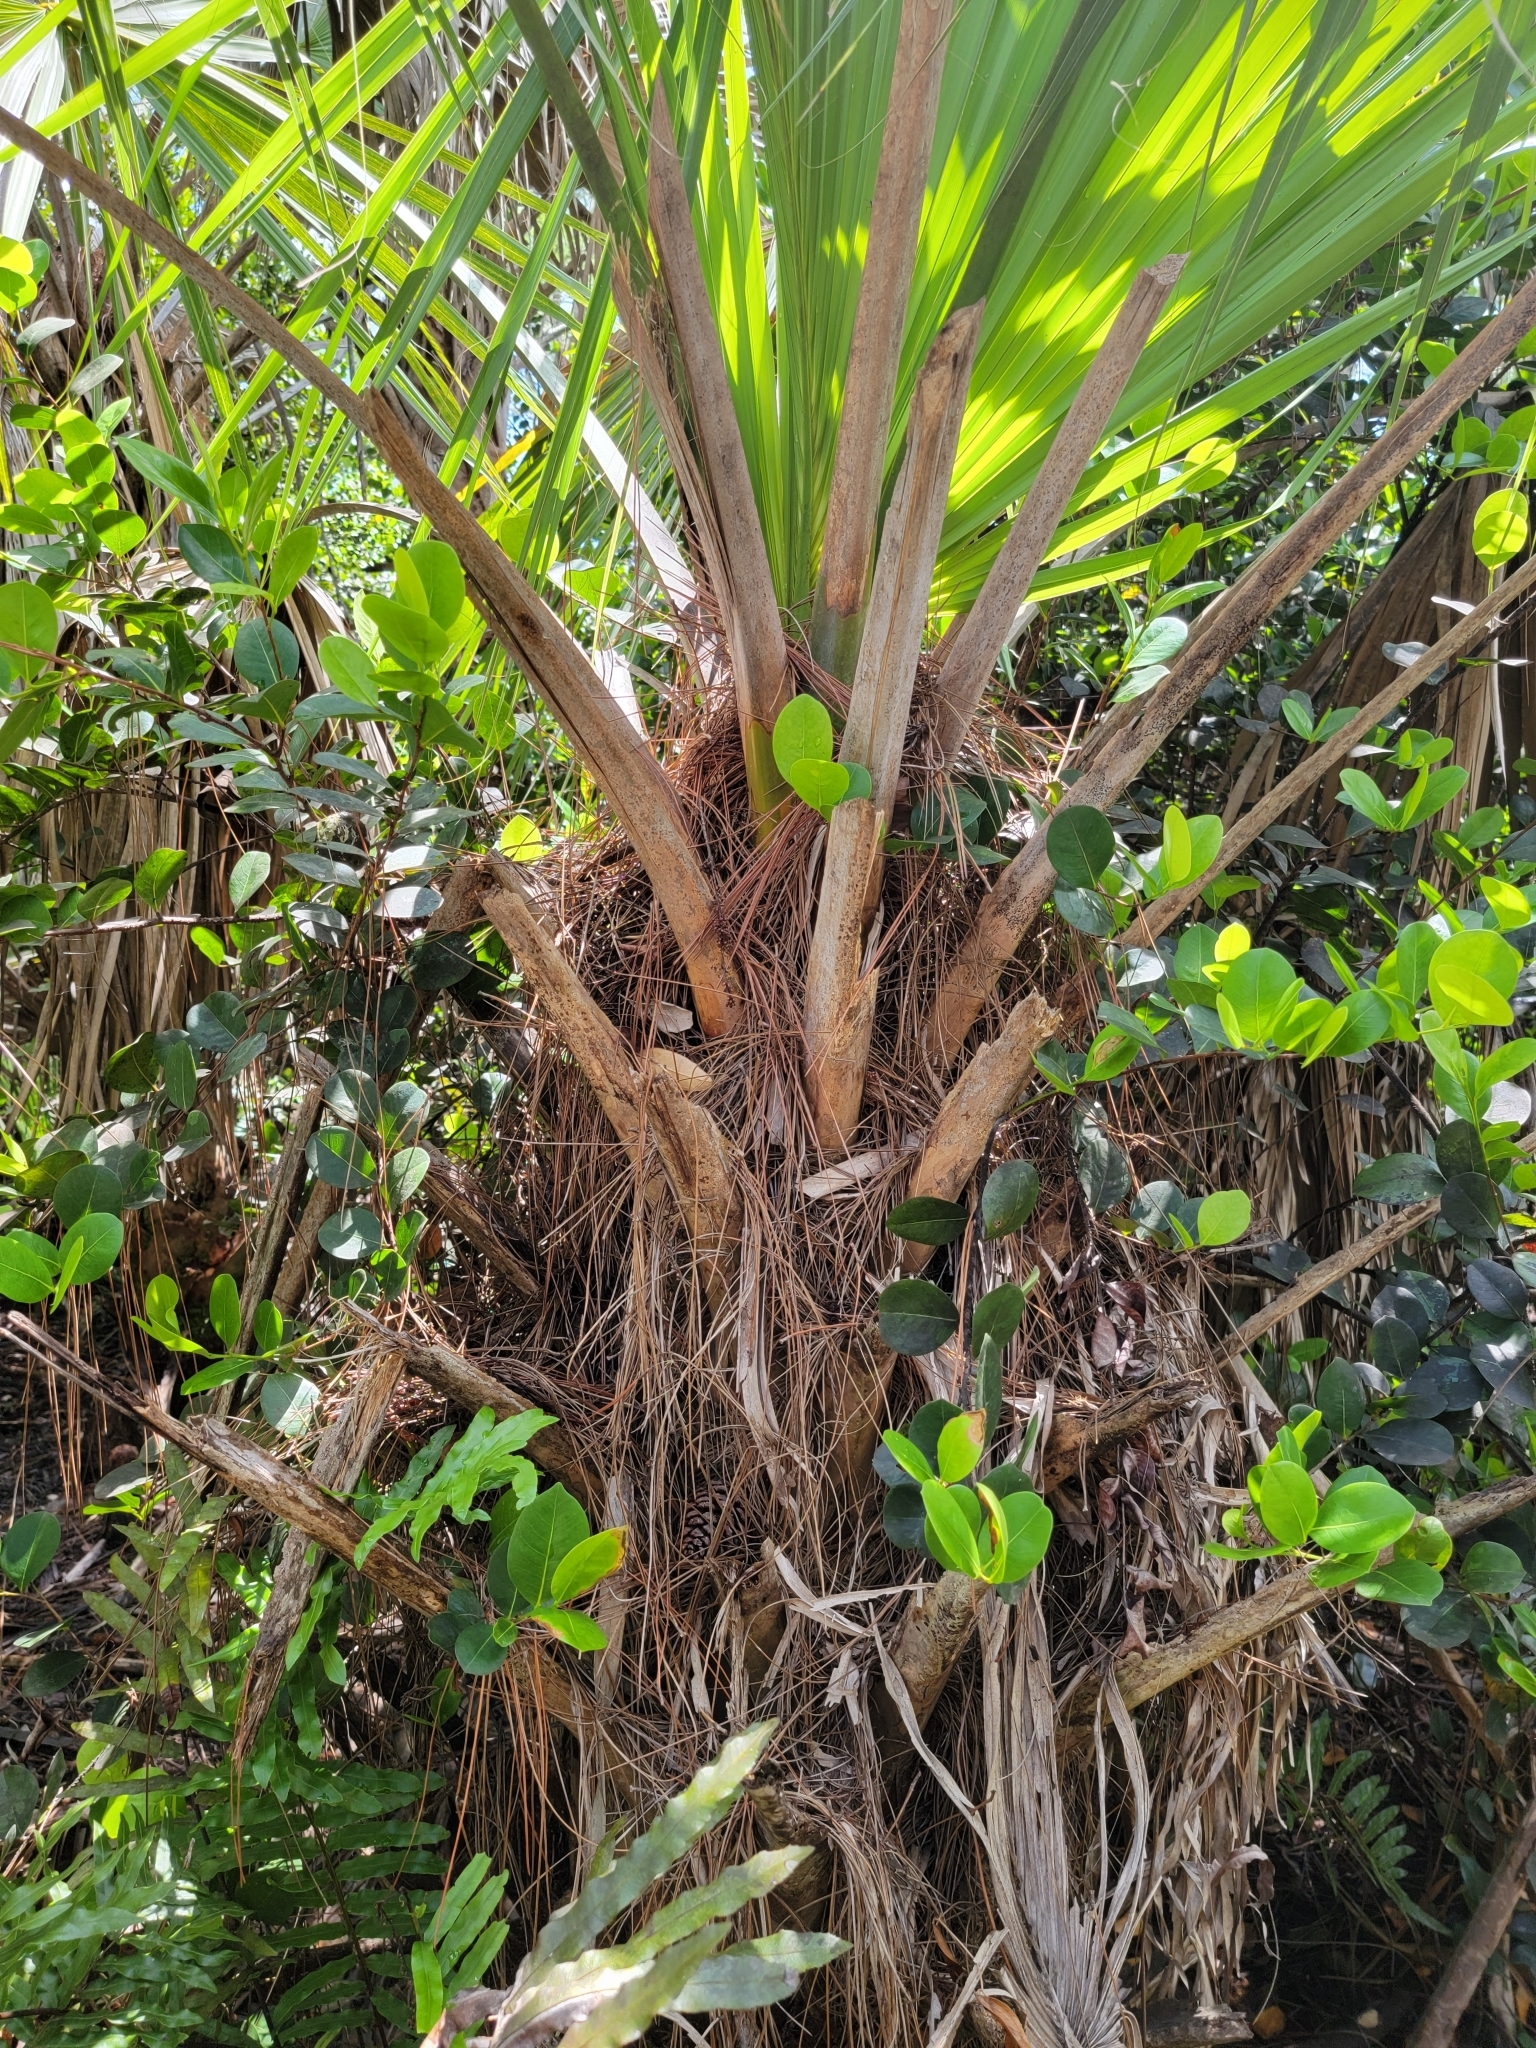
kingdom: Plantae
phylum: Tracheophyta
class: Liliopsida
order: Arecales
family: Arecaceae
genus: Sabal
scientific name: Sabal palmetto
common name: Blue palmetto
